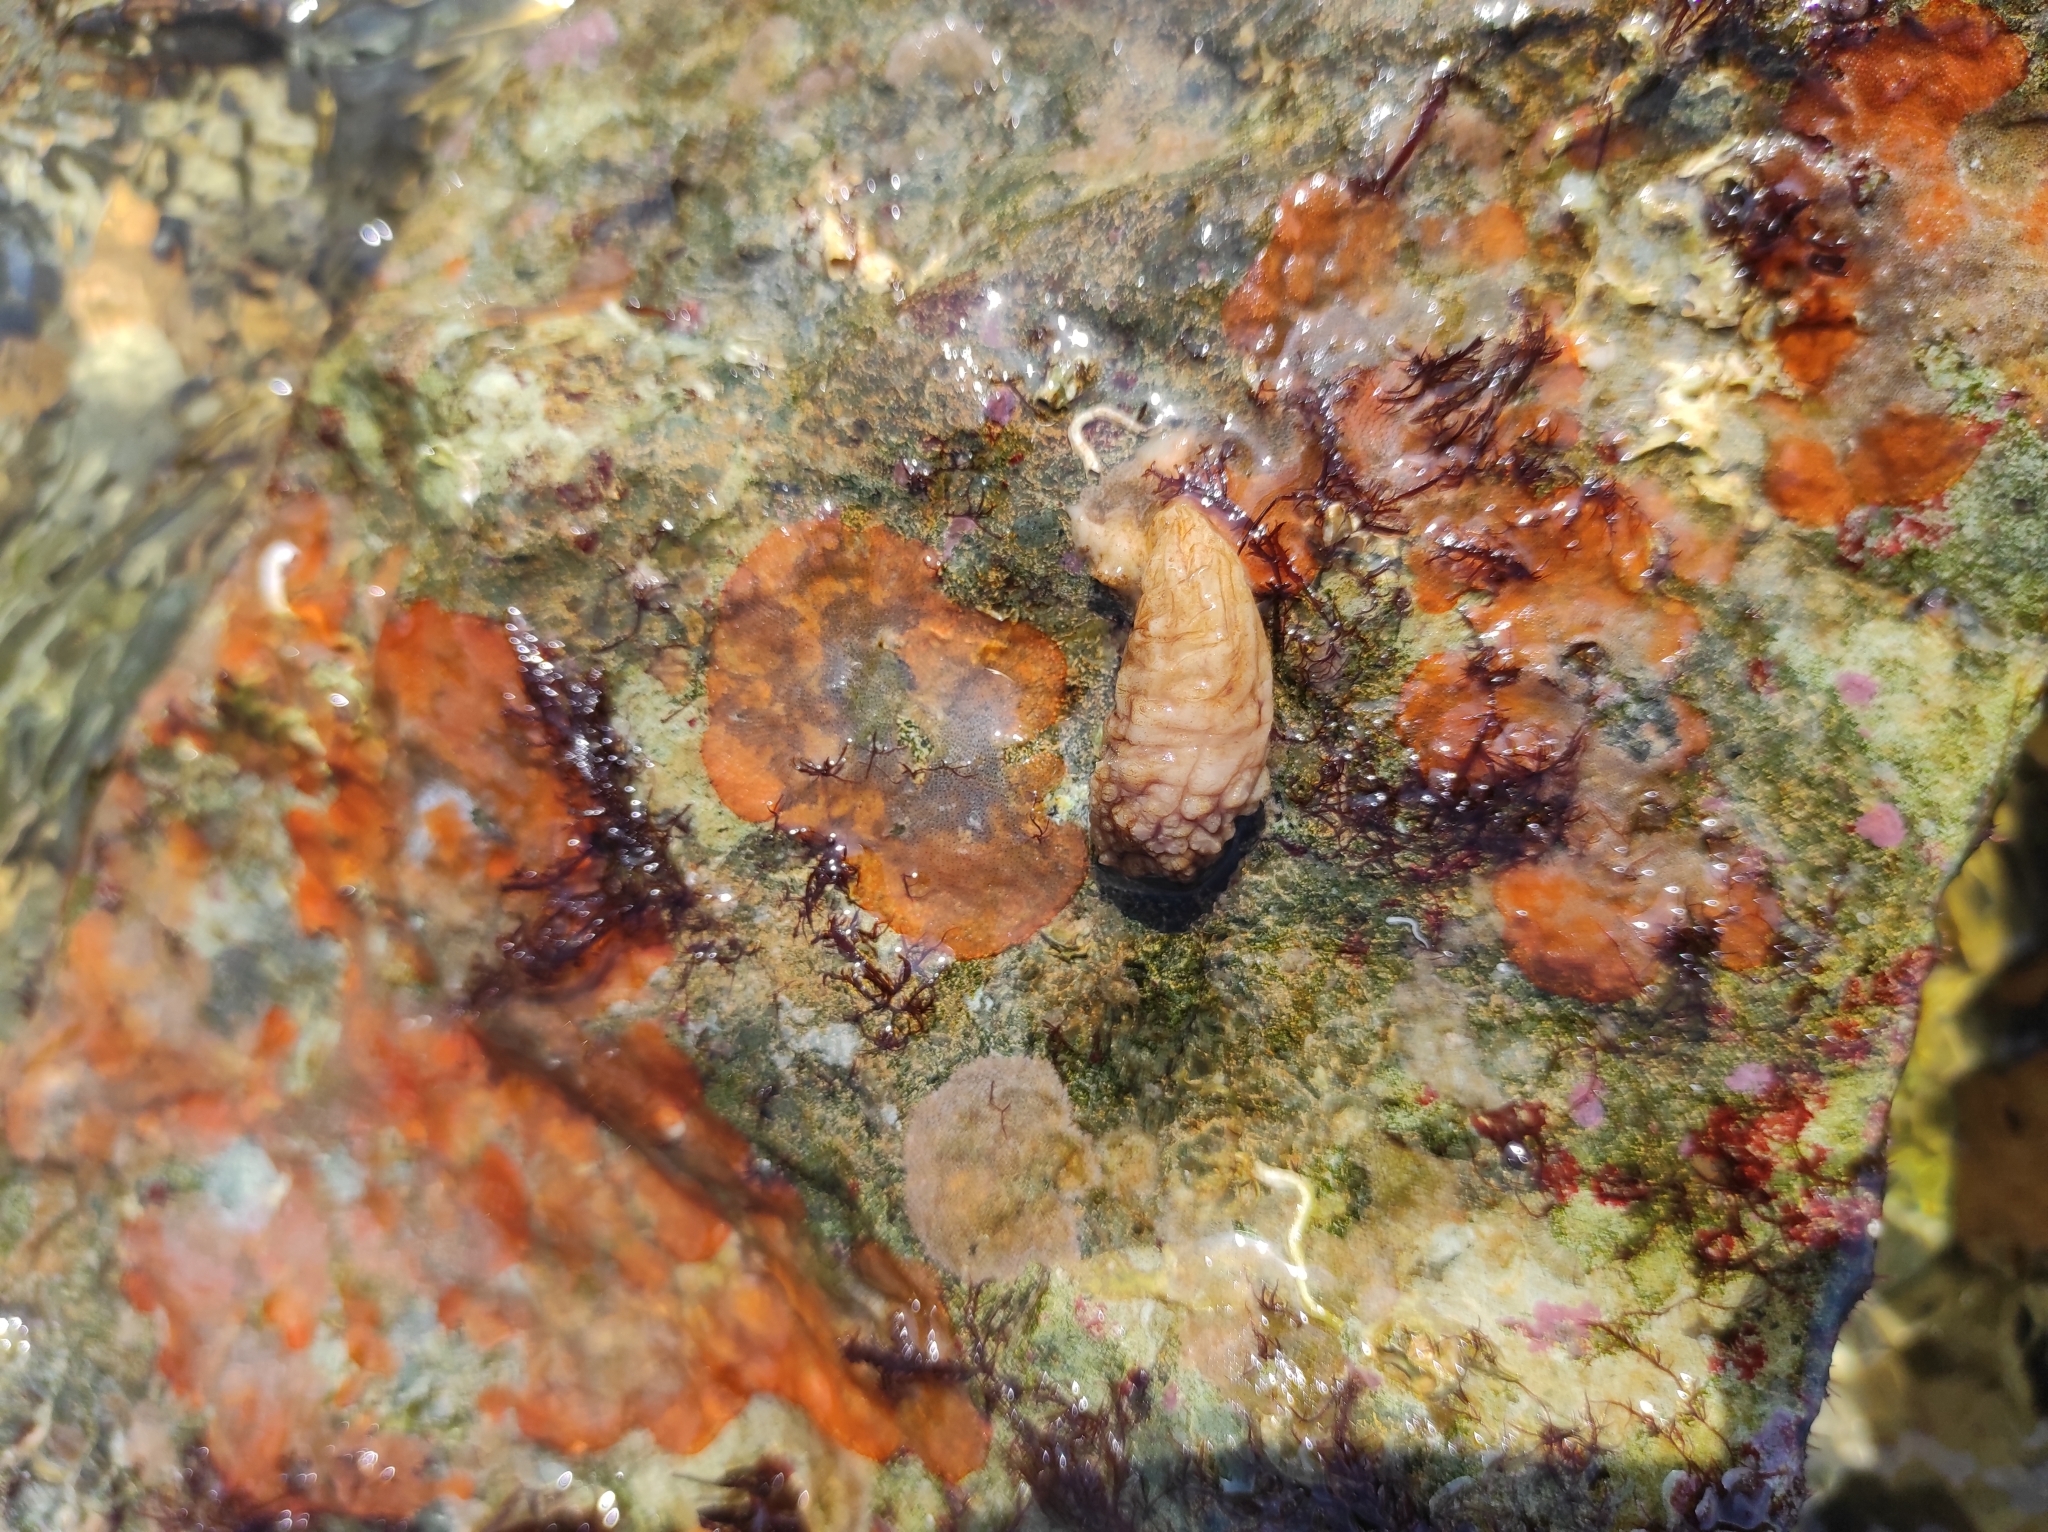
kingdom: Animalia
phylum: Chordata
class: Ascidiacea
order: Stolidobranchia
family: Styelidae
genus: Styela
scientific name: Styela clava
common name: Leathery sea squirt
